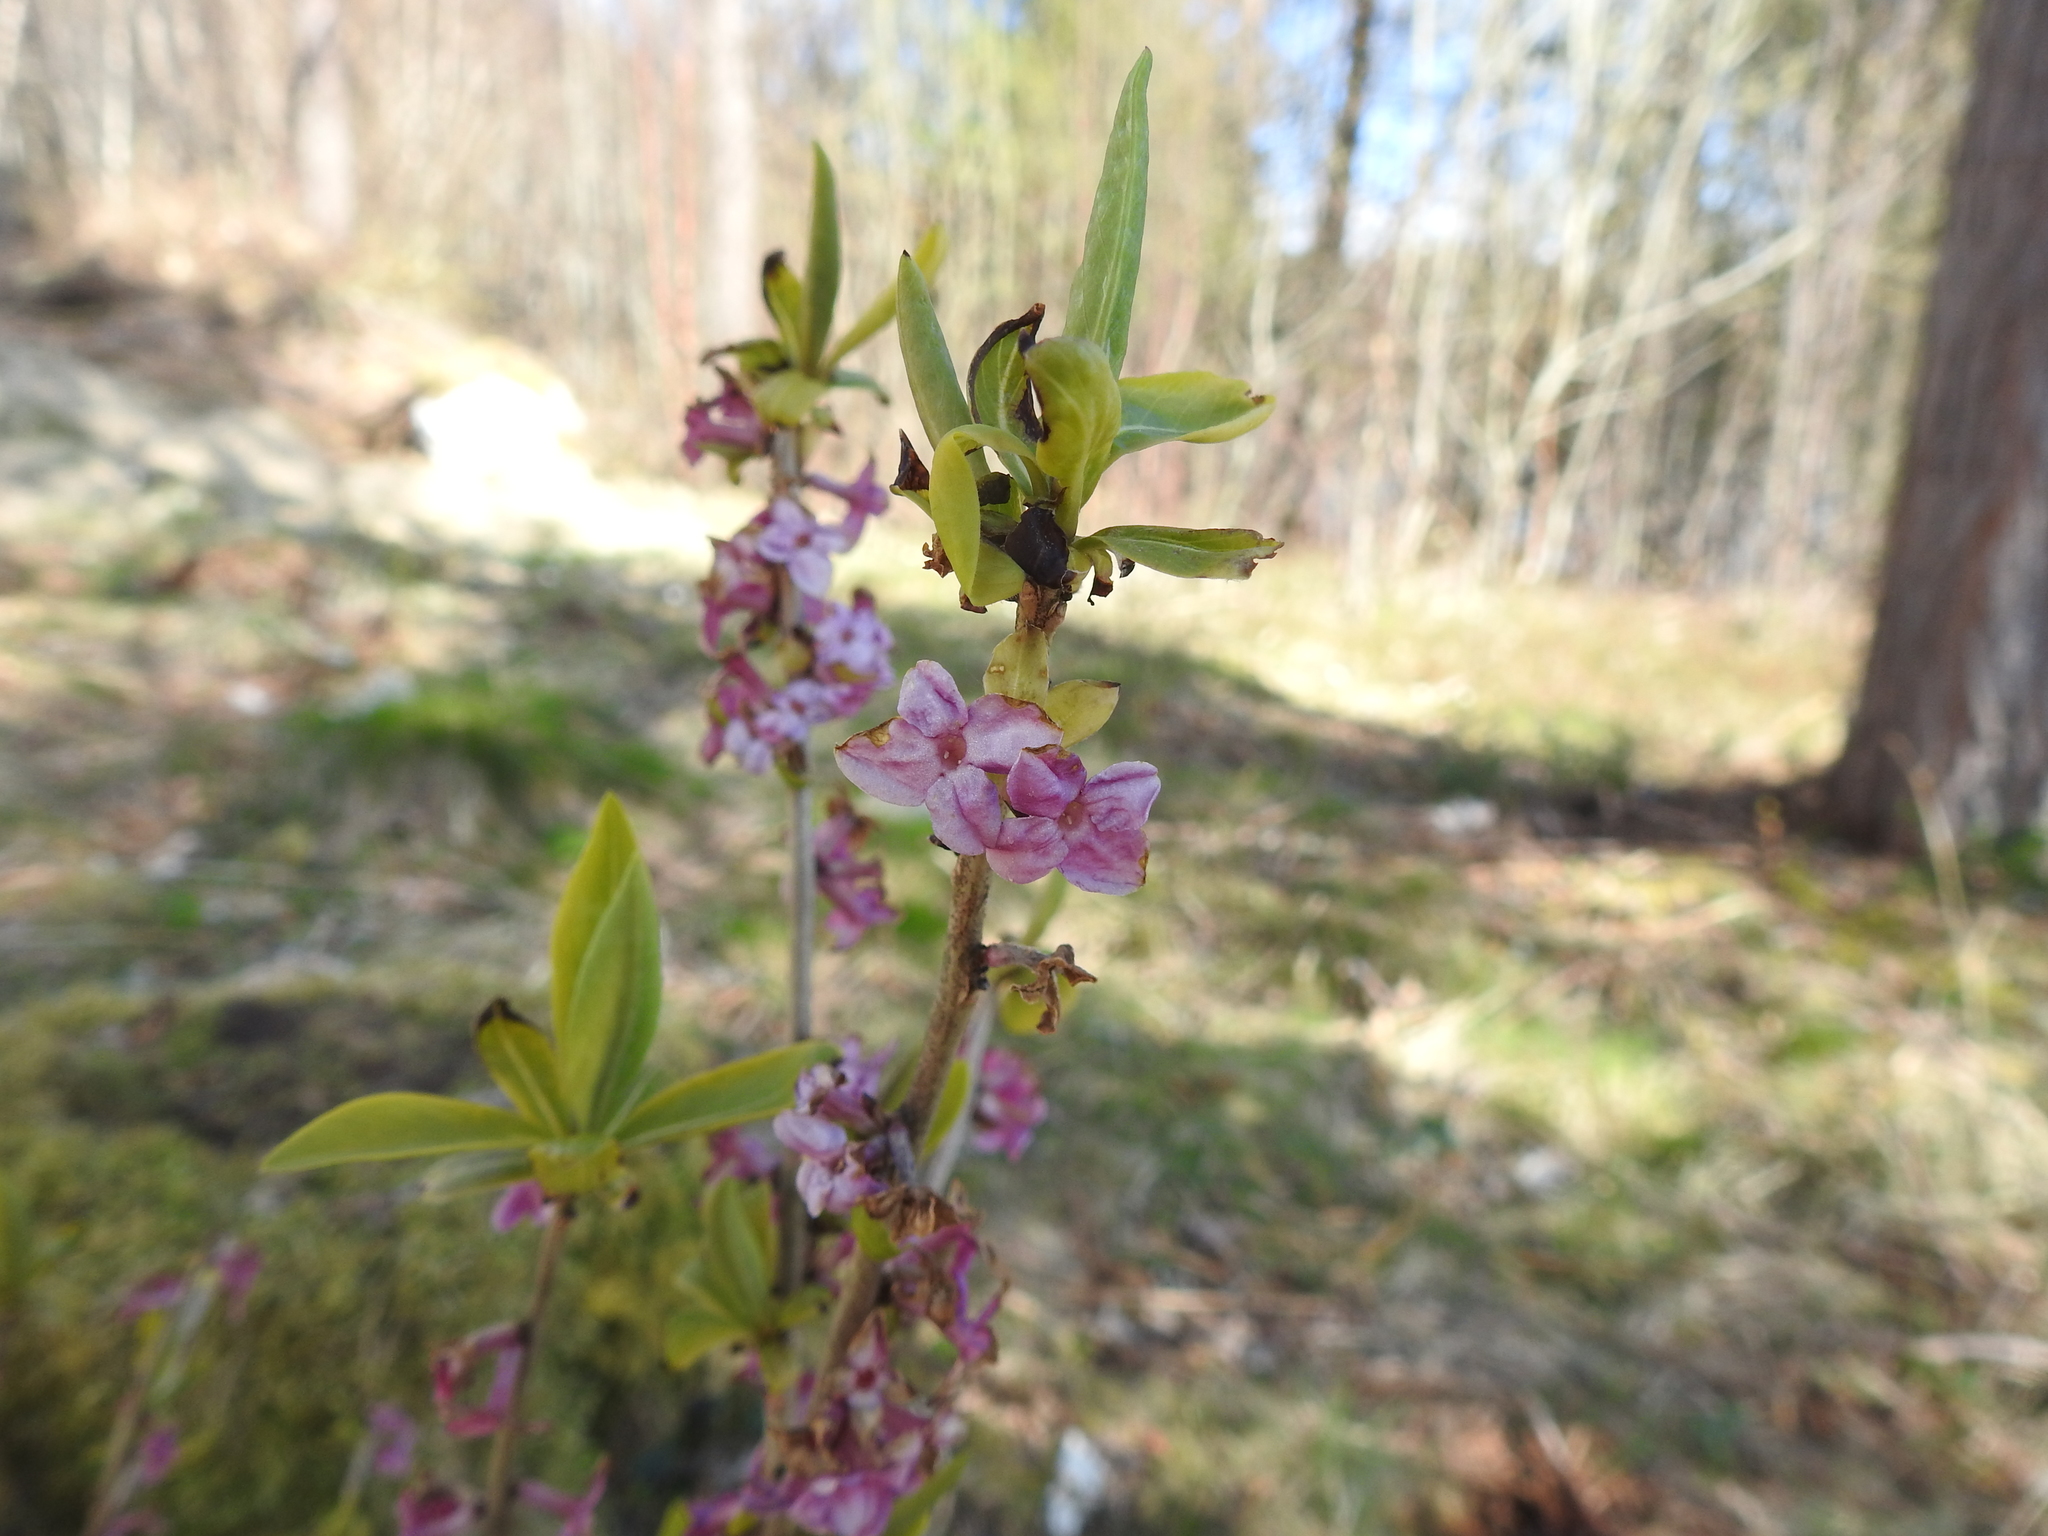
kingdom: Plantae
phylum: Tracheophyta
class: Magnoliopsida
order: Malvales
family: Thymelaeaceae
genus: Daphne
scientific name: Daphne mezereum
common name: Mezereon
